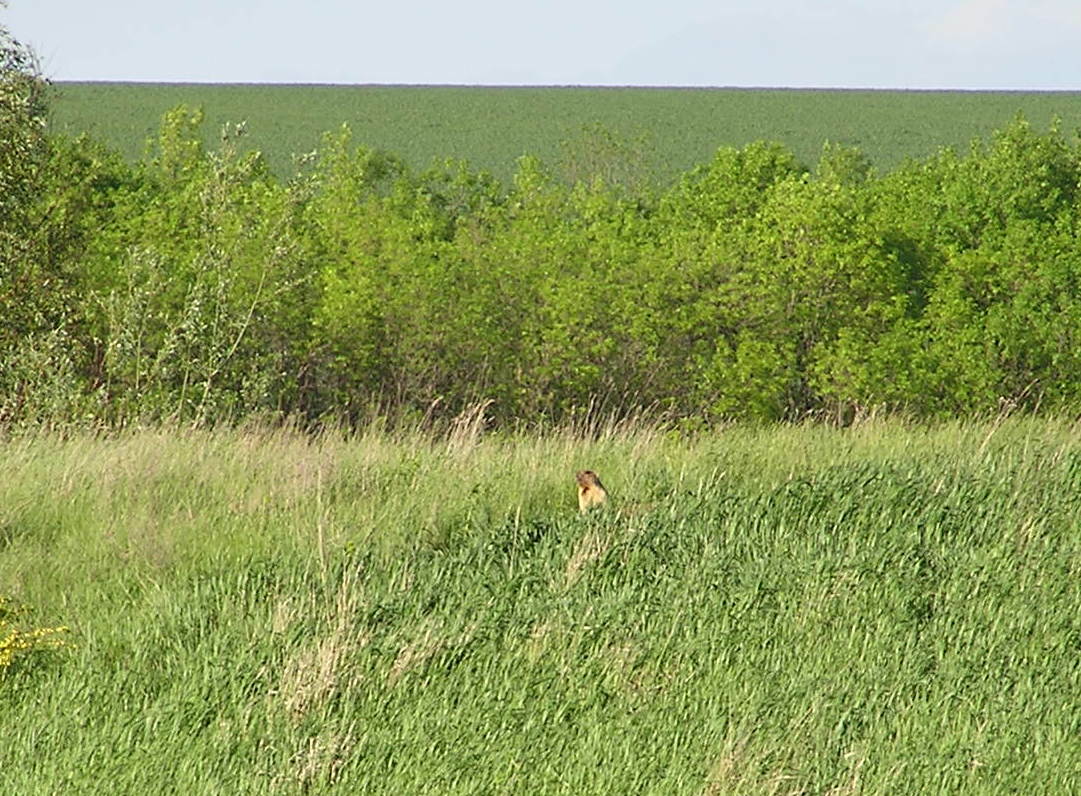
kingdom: Animalia
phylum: Chordata
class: Mammalia
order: Rodentia
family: Sciuridae
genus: Marmota
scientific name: Marmota bobak
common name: Bobak marmot
